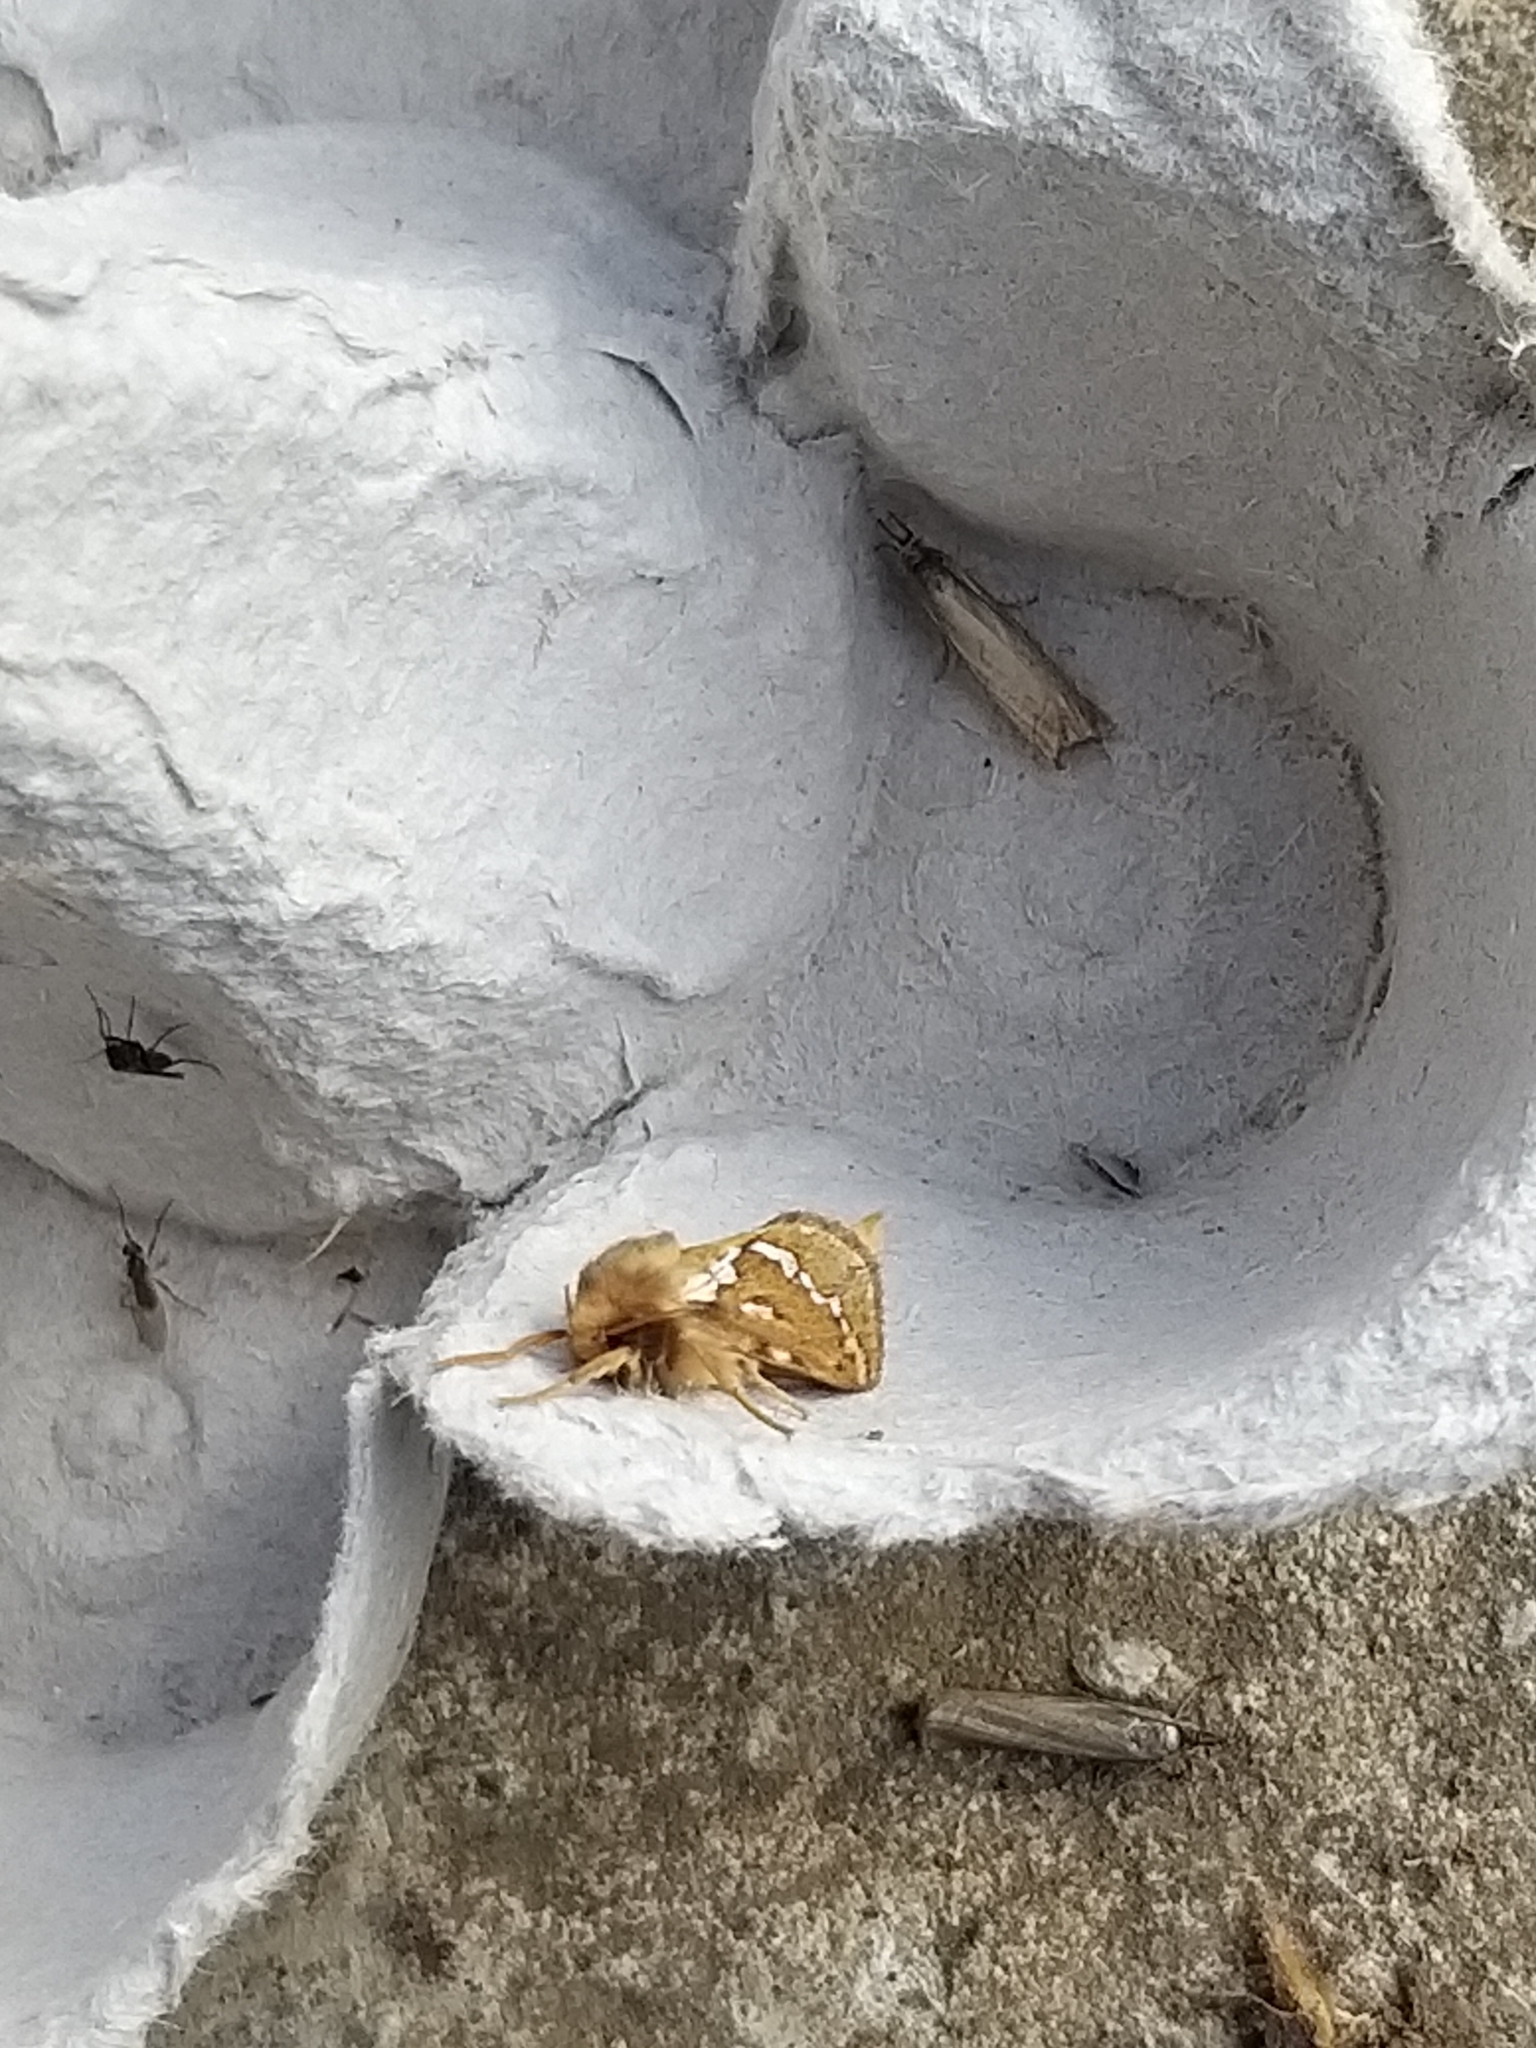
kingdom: Animalia
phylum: Arthropoda
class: Insecta
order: Lepidoptera
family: Hepialidae
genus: Korscheltellus
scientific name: Korscheltellus lupulina
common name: Common swift
